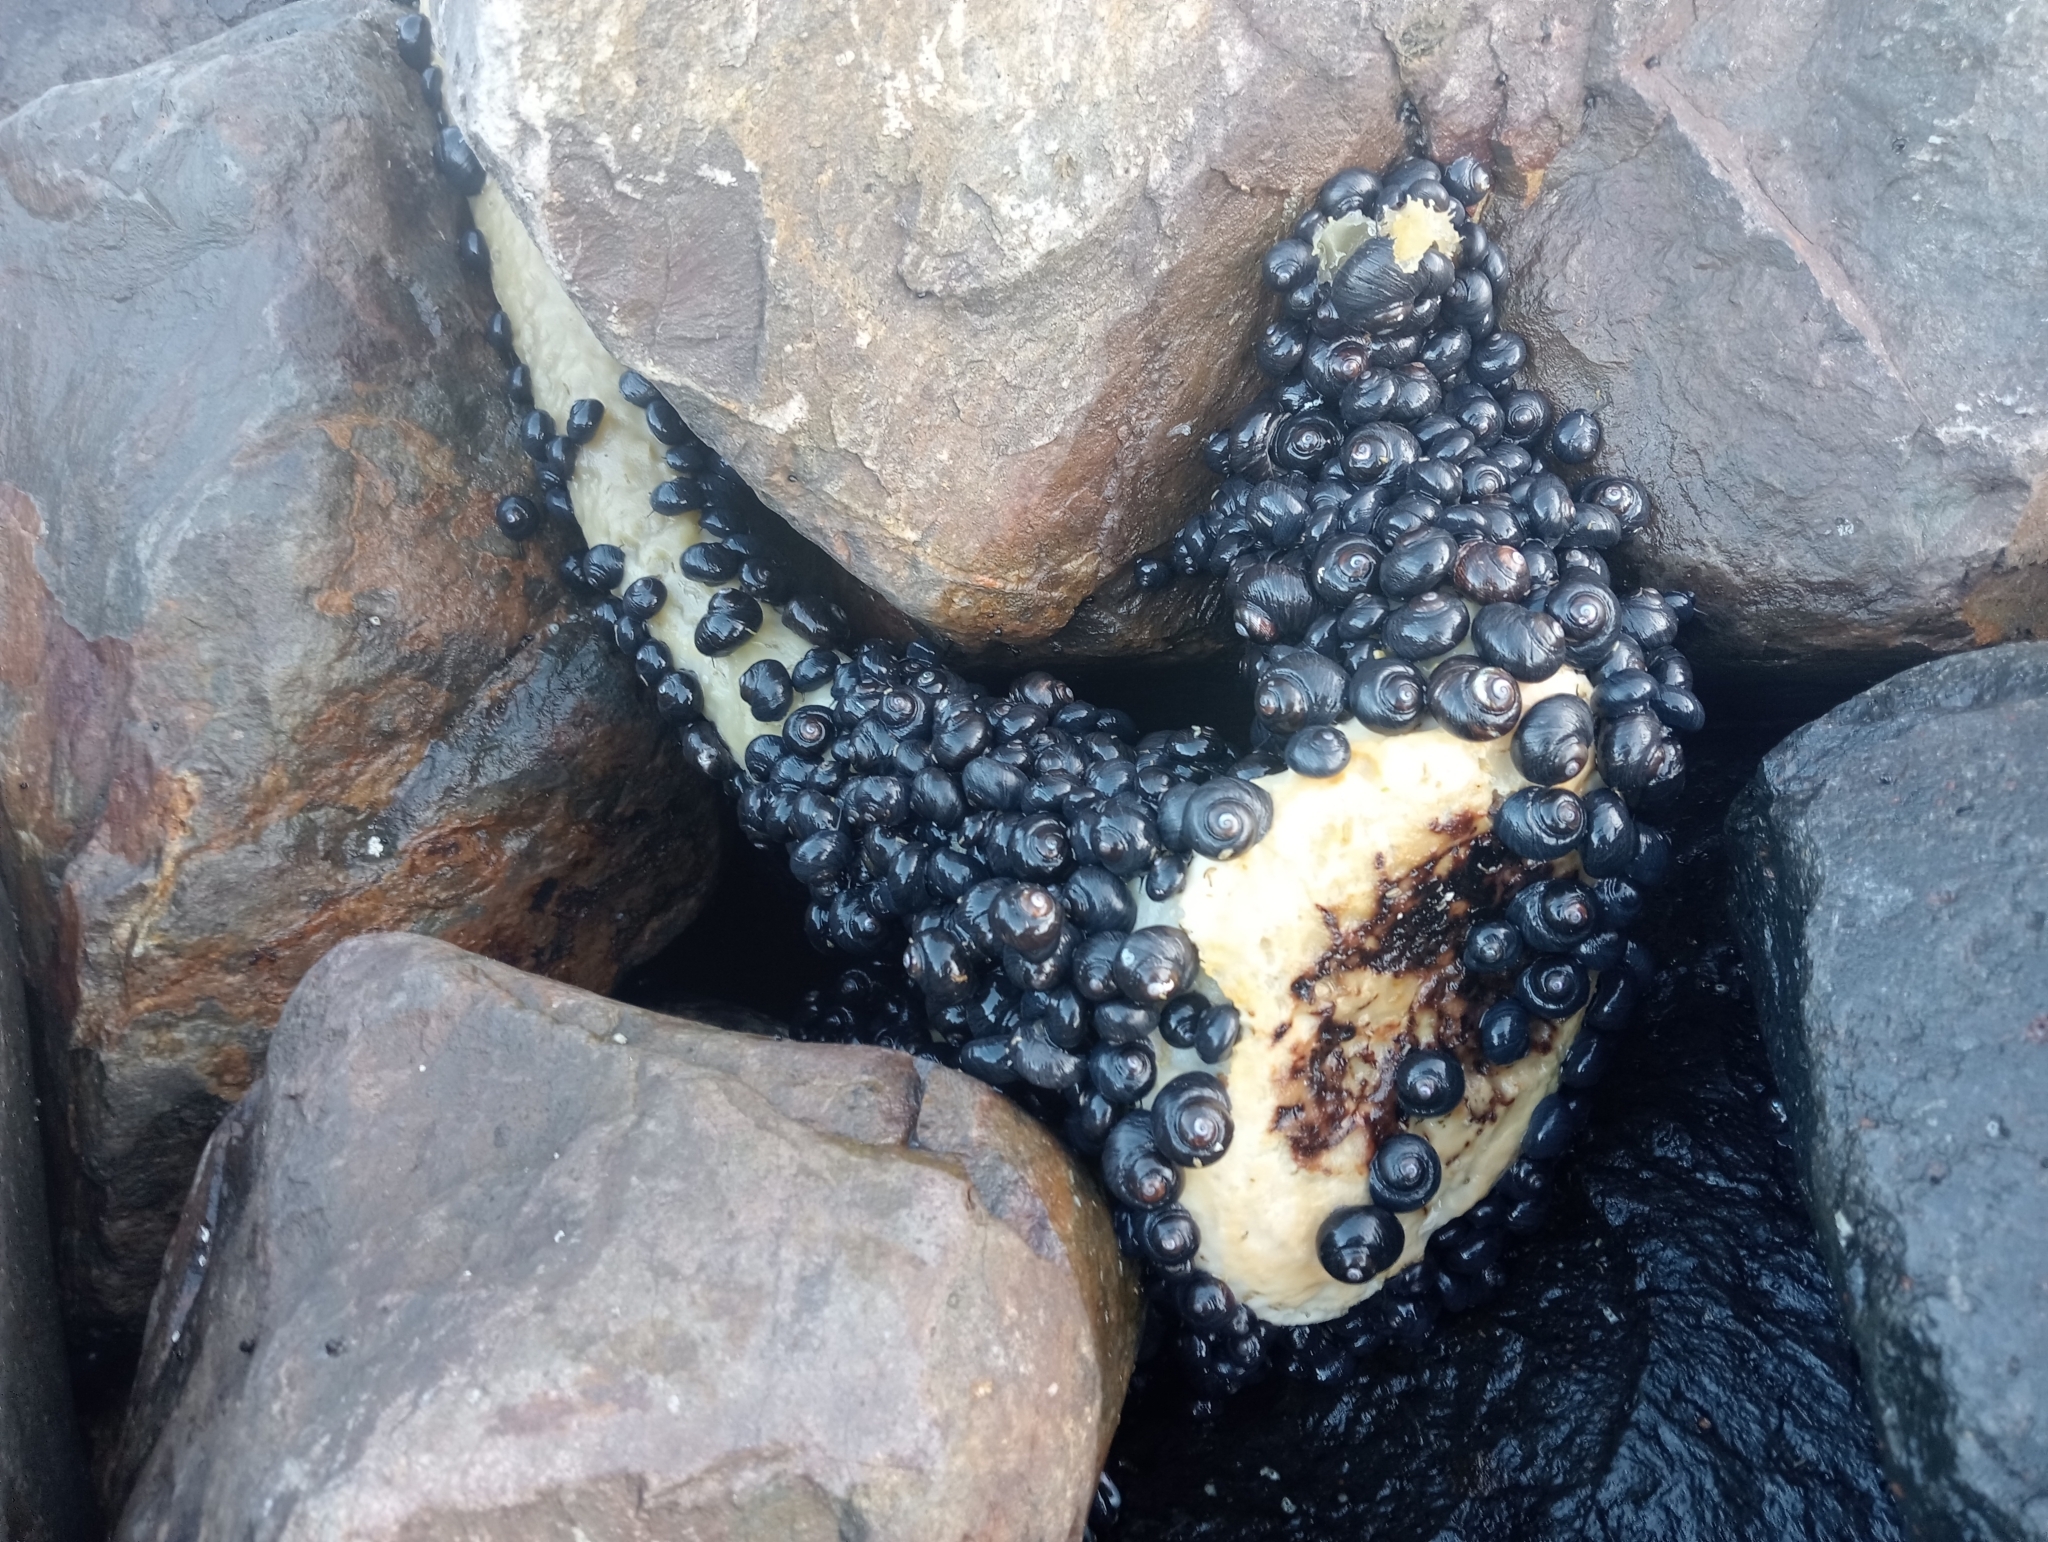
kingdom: Animalia
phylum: Mollusca
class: Gastropoda
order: Trochida
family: Trochidae
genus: Diloma
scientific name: Diloma nigerrimum
